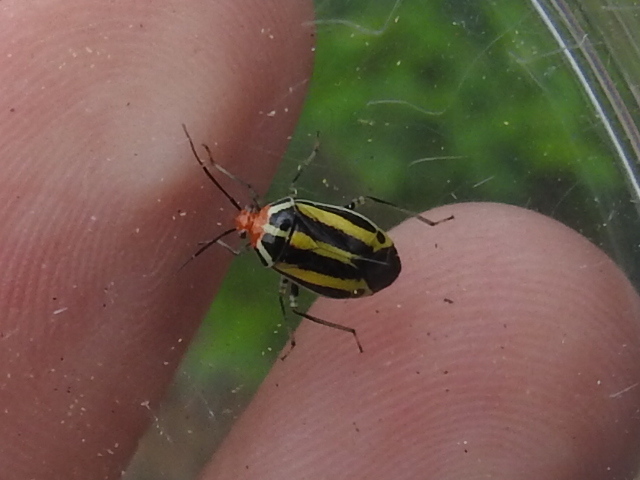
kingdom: Animalia
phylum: Arthropoda
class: Insecta
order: Hemiptera
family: Miridae
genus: Poecilocapsus
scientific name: Poecilocapsus lineatus
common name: Four-lined plant bug
